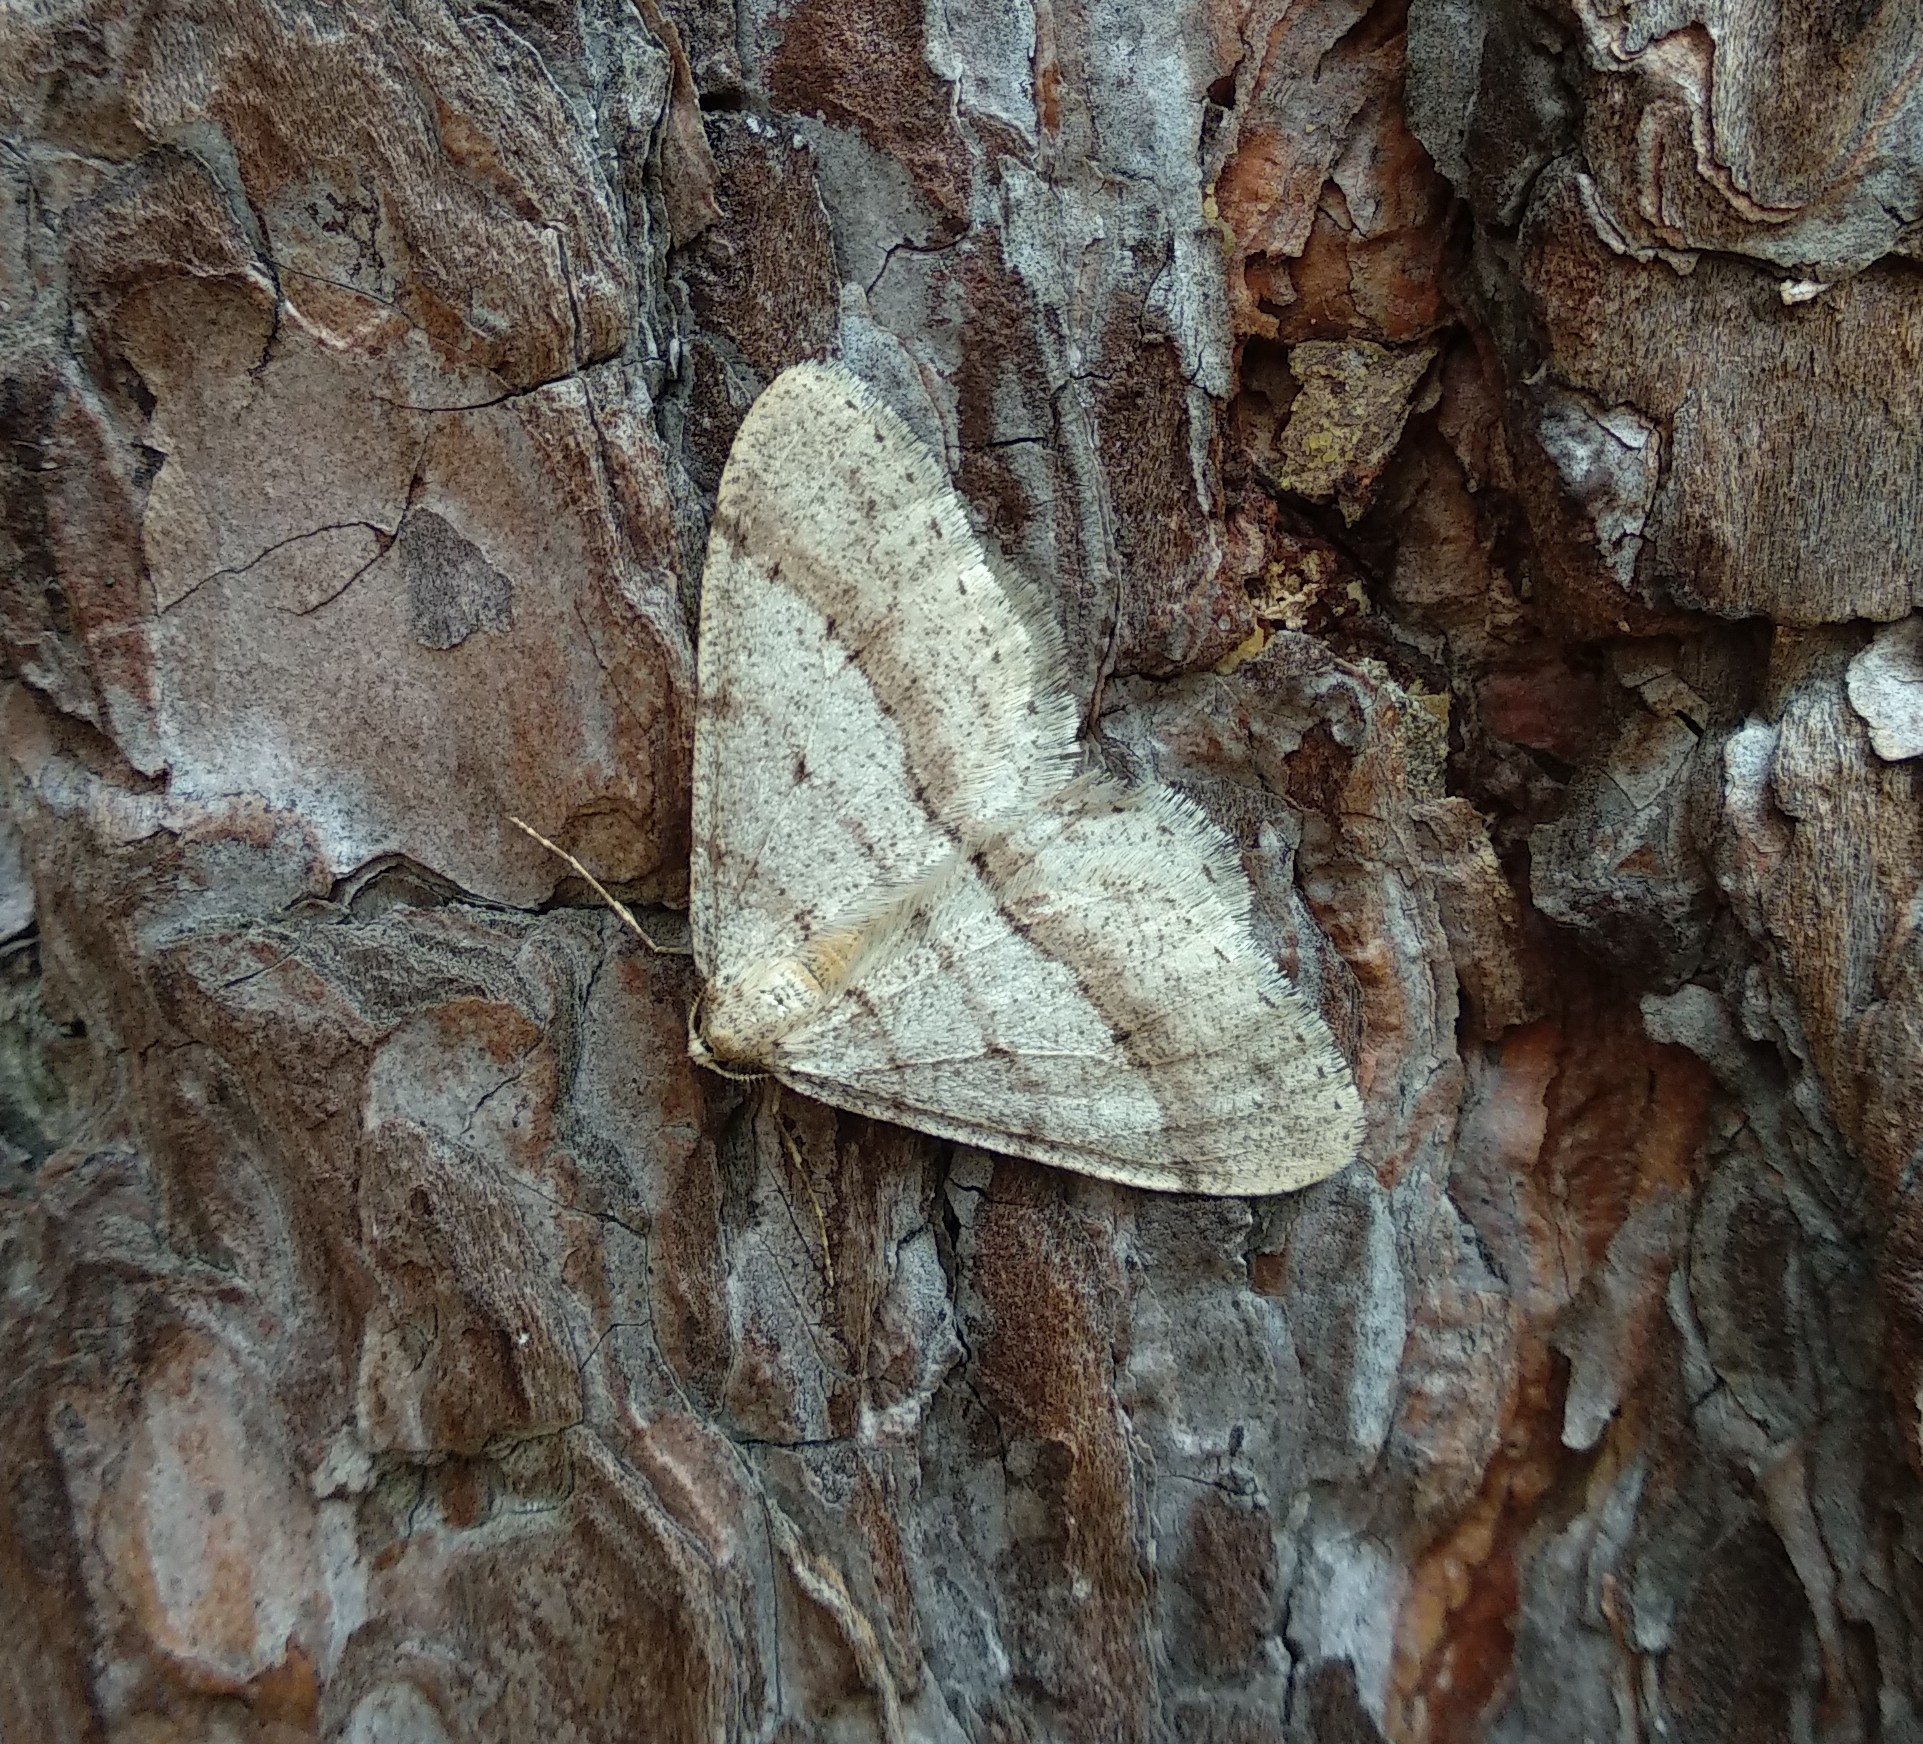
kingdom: Animalia
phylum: Arthropoda
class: Insecta
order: Lepidoptera
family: Geometridae
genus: Larerannis
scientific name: Larerannis orthogrammaria
